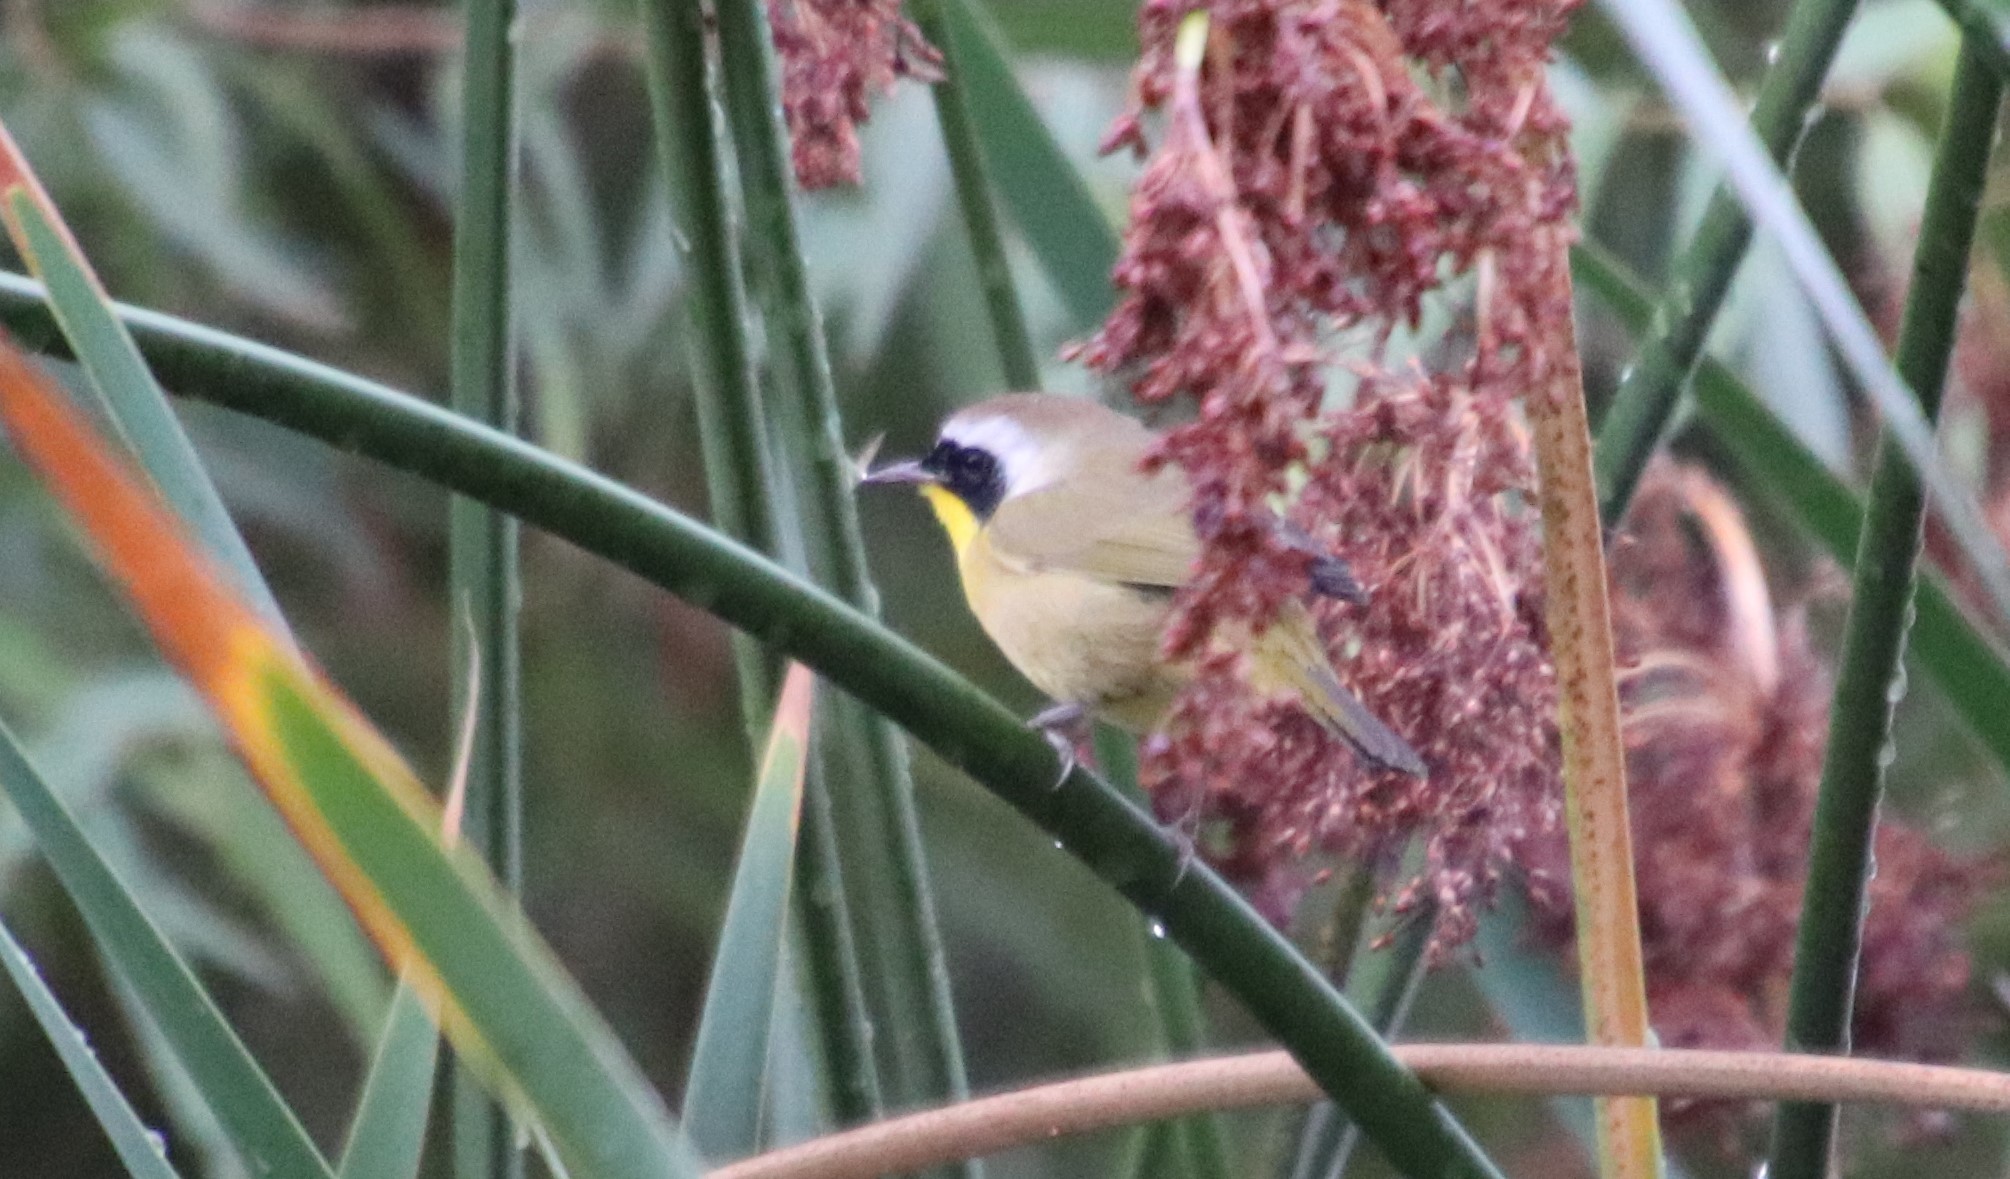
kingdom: Animalia
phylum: Chordata
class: Aves
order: Passeriformes
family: Parulidae
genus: Geothlypis
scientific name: Geothlypis trichas
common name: Common yellowthroat
